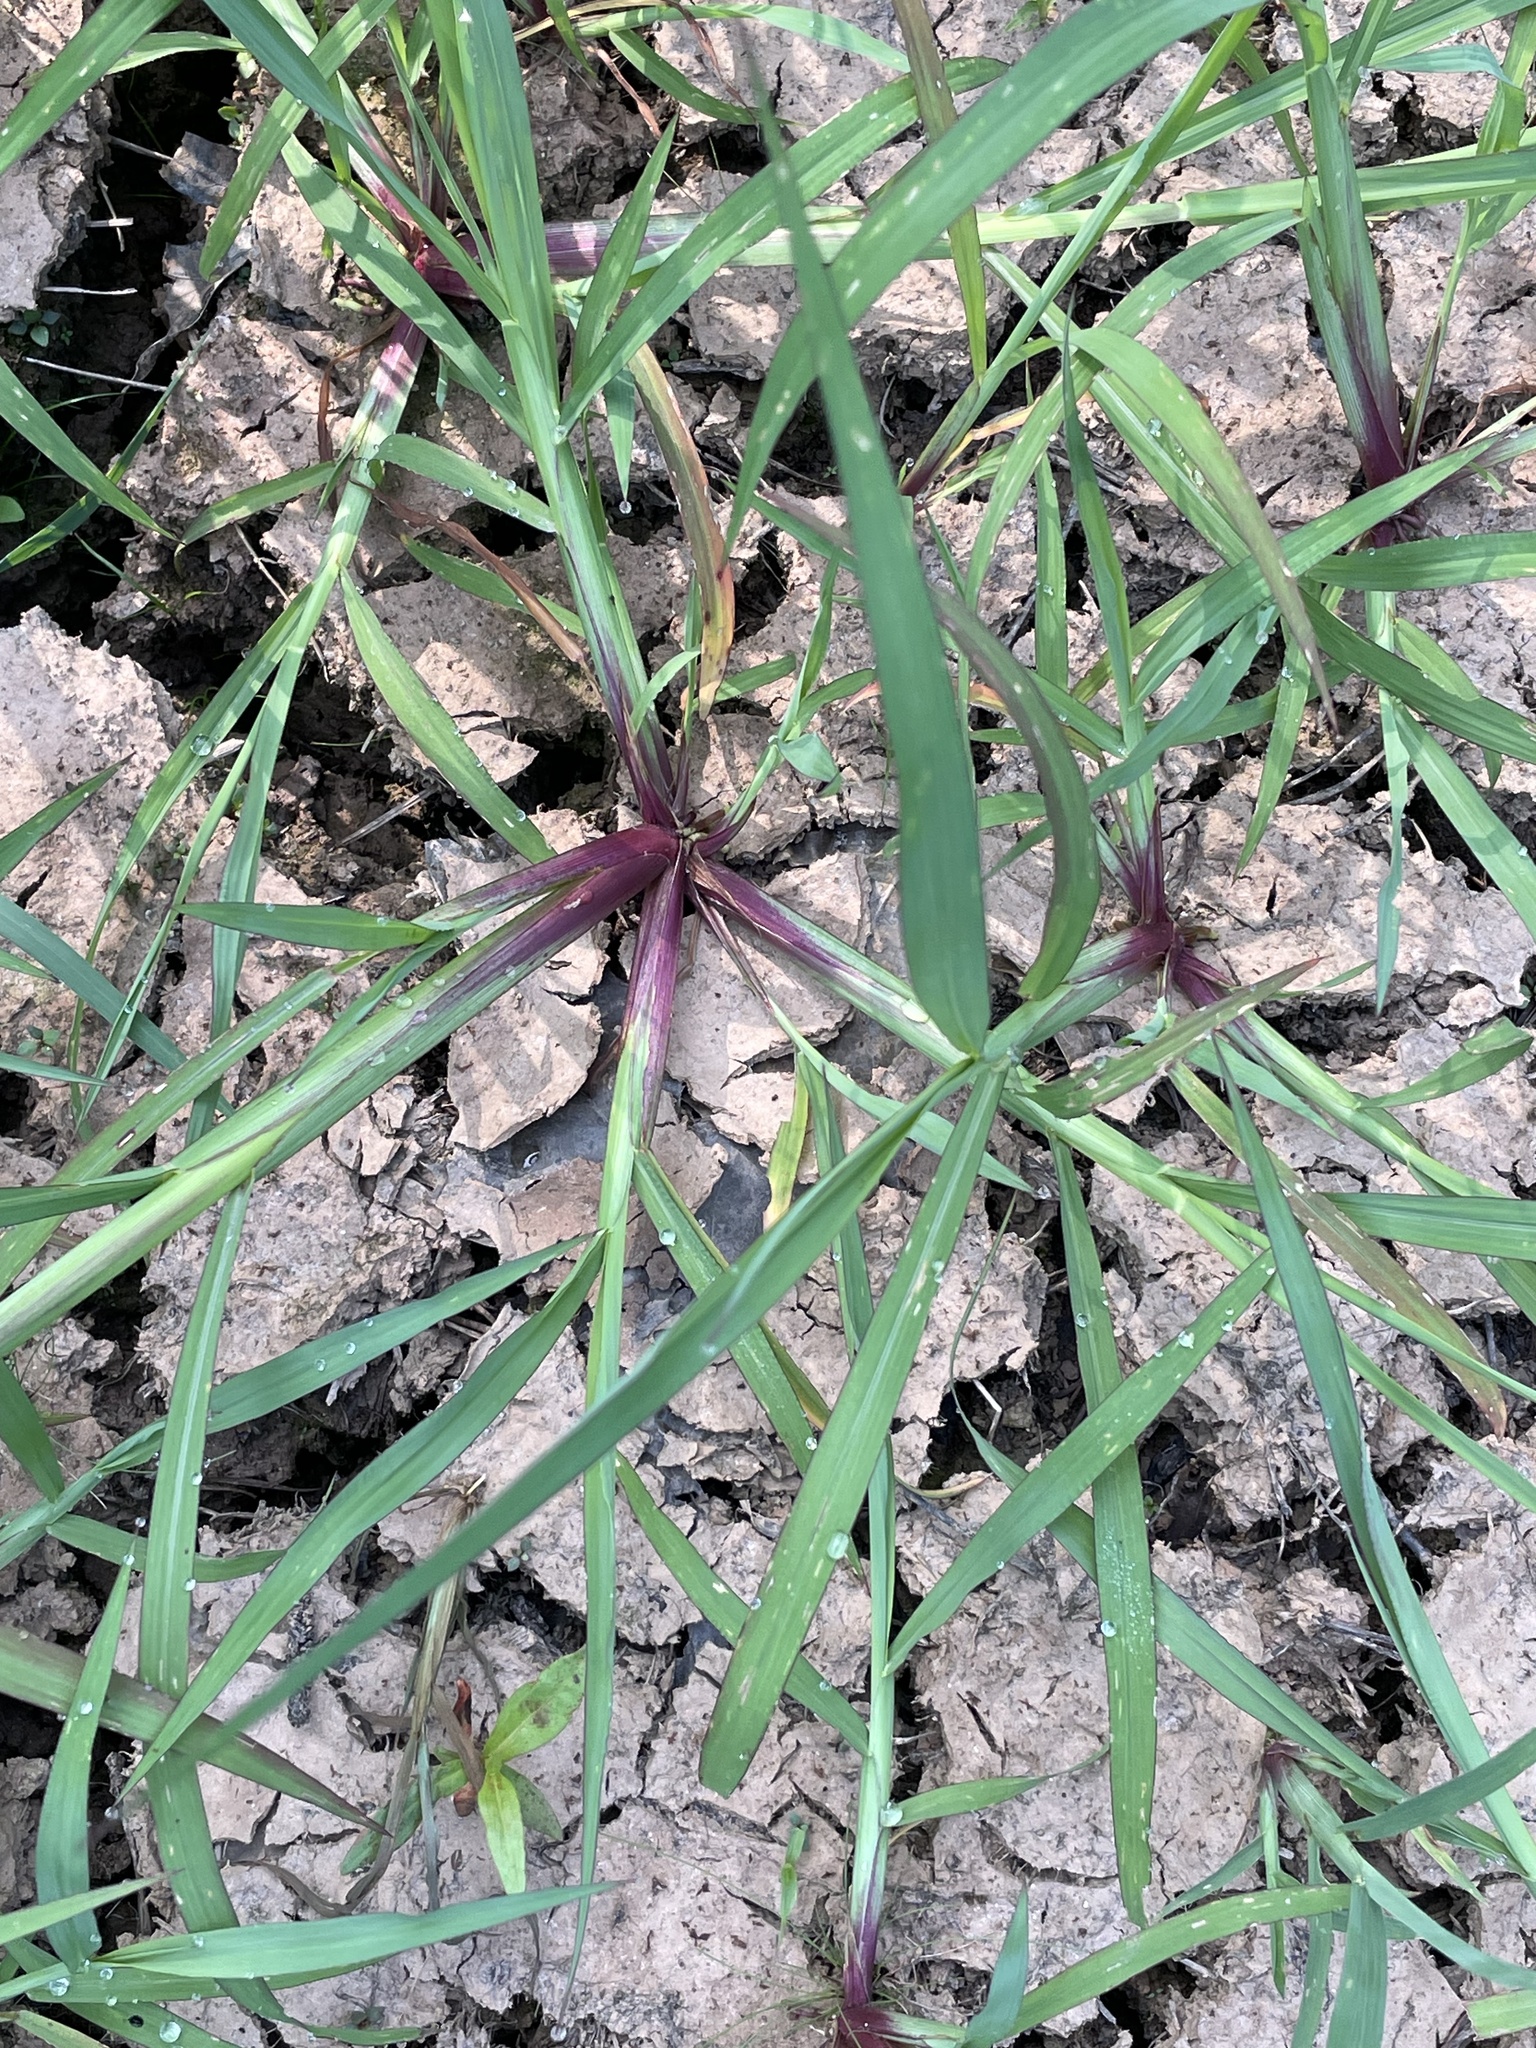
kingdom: Plantae
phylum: Tracheophyta
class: Liliopsida
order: Poales
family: Poaceae
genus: Eleusine
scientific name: Eleusine indica
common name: Yard-grass
